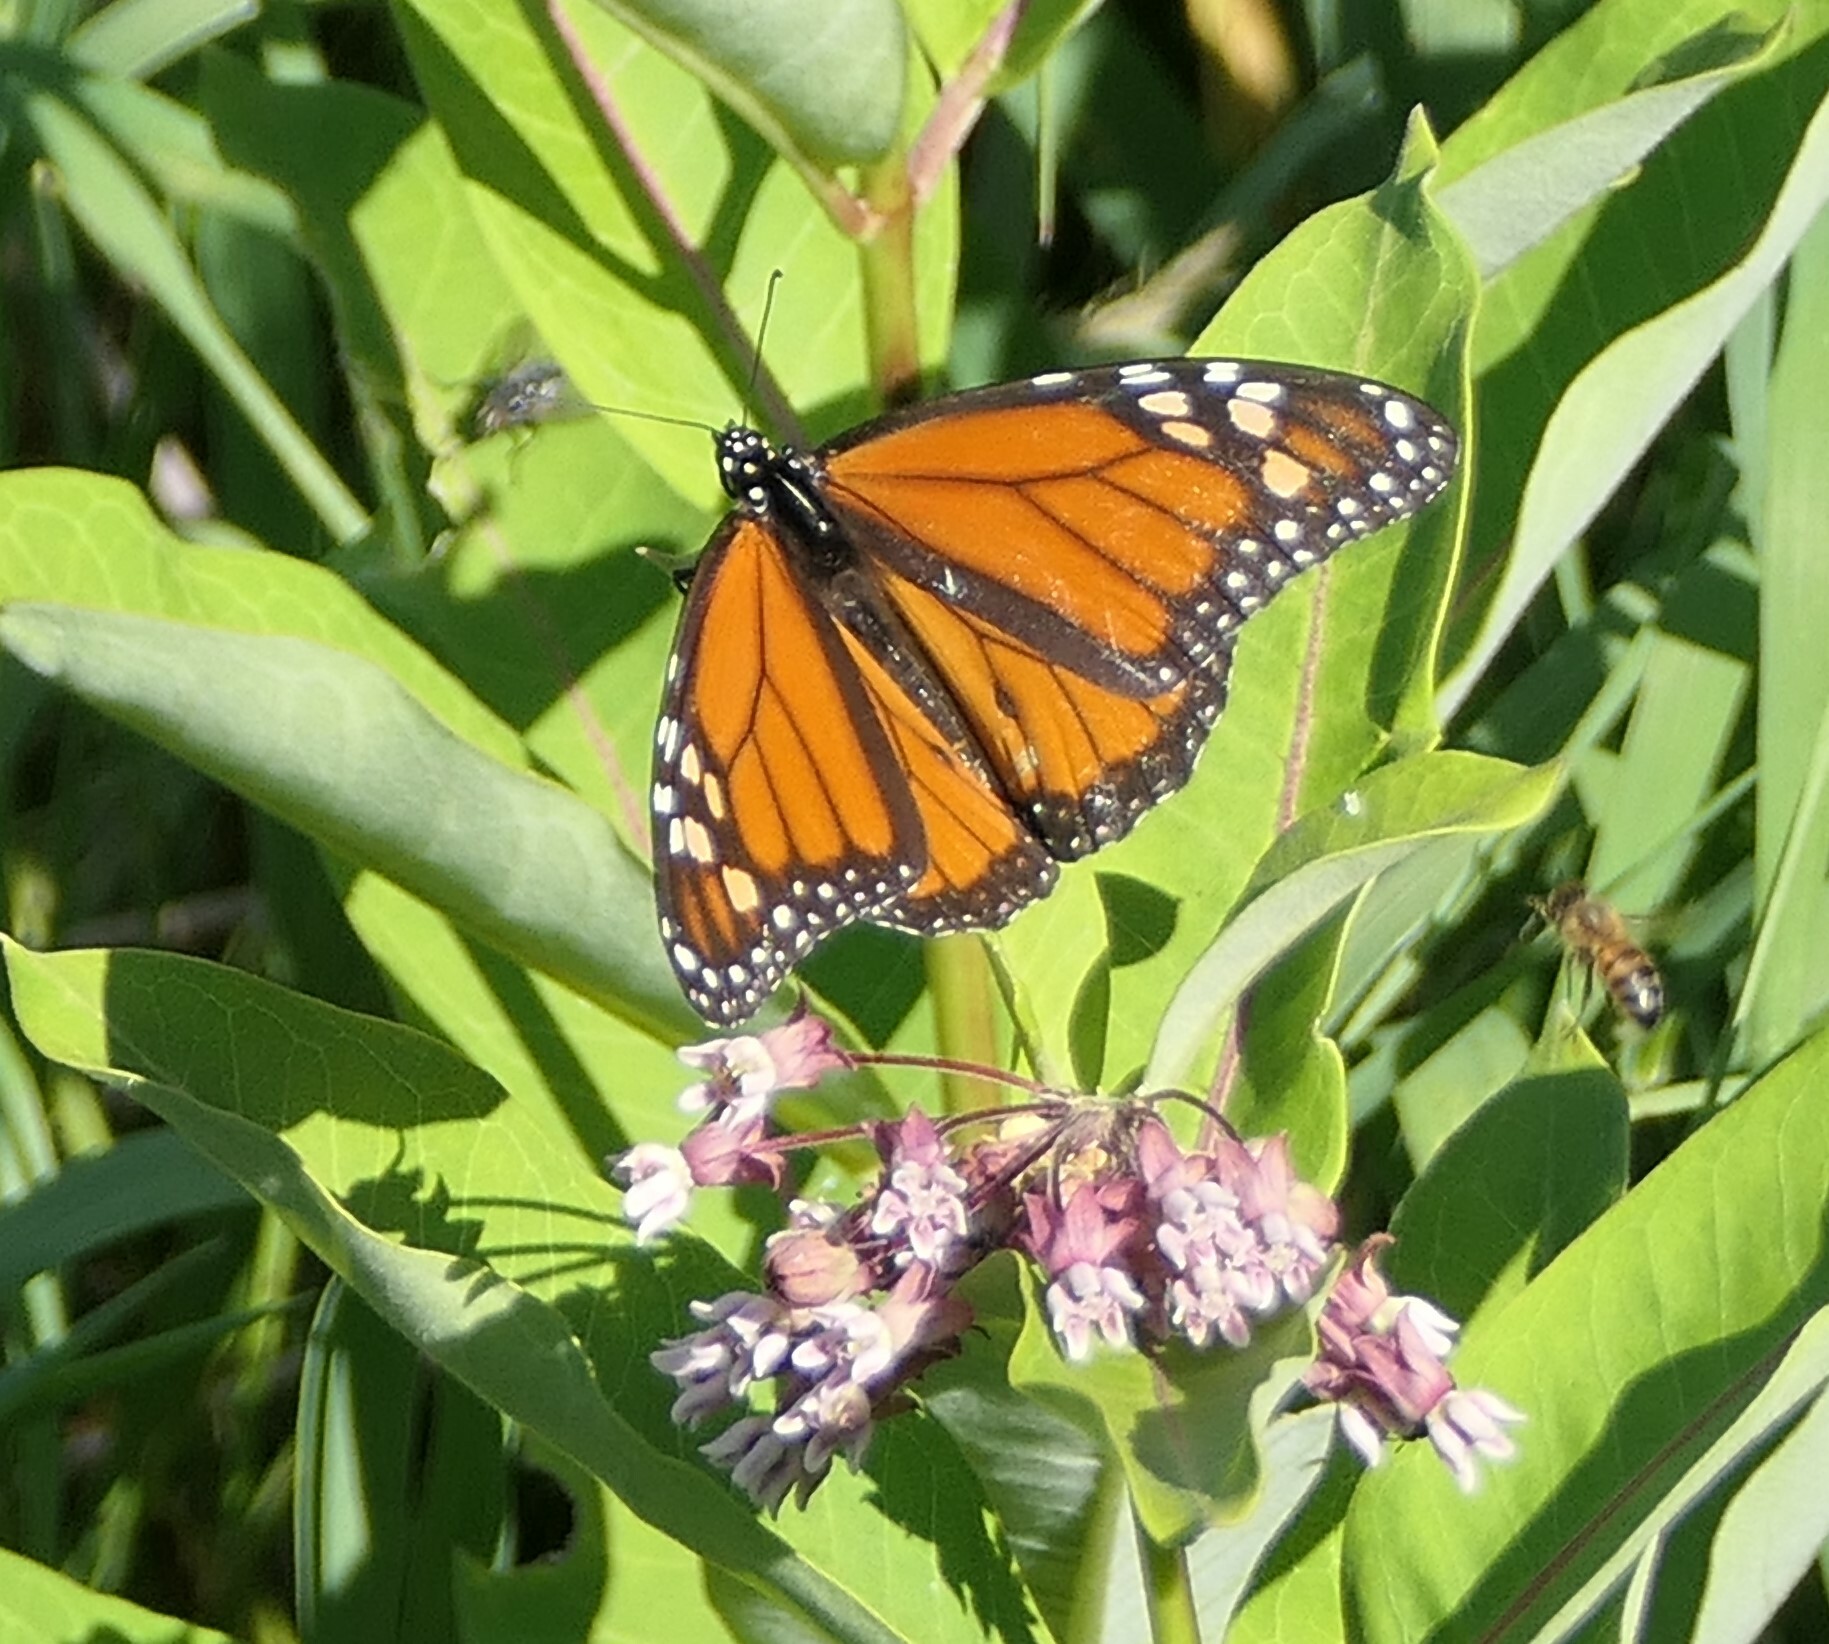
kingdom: Animalia
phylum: Arthropoda
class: Insecta
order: Lepidoptera
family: Nymphalidae
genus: Danaus
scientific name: Danaus plexippus
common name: Monarch
